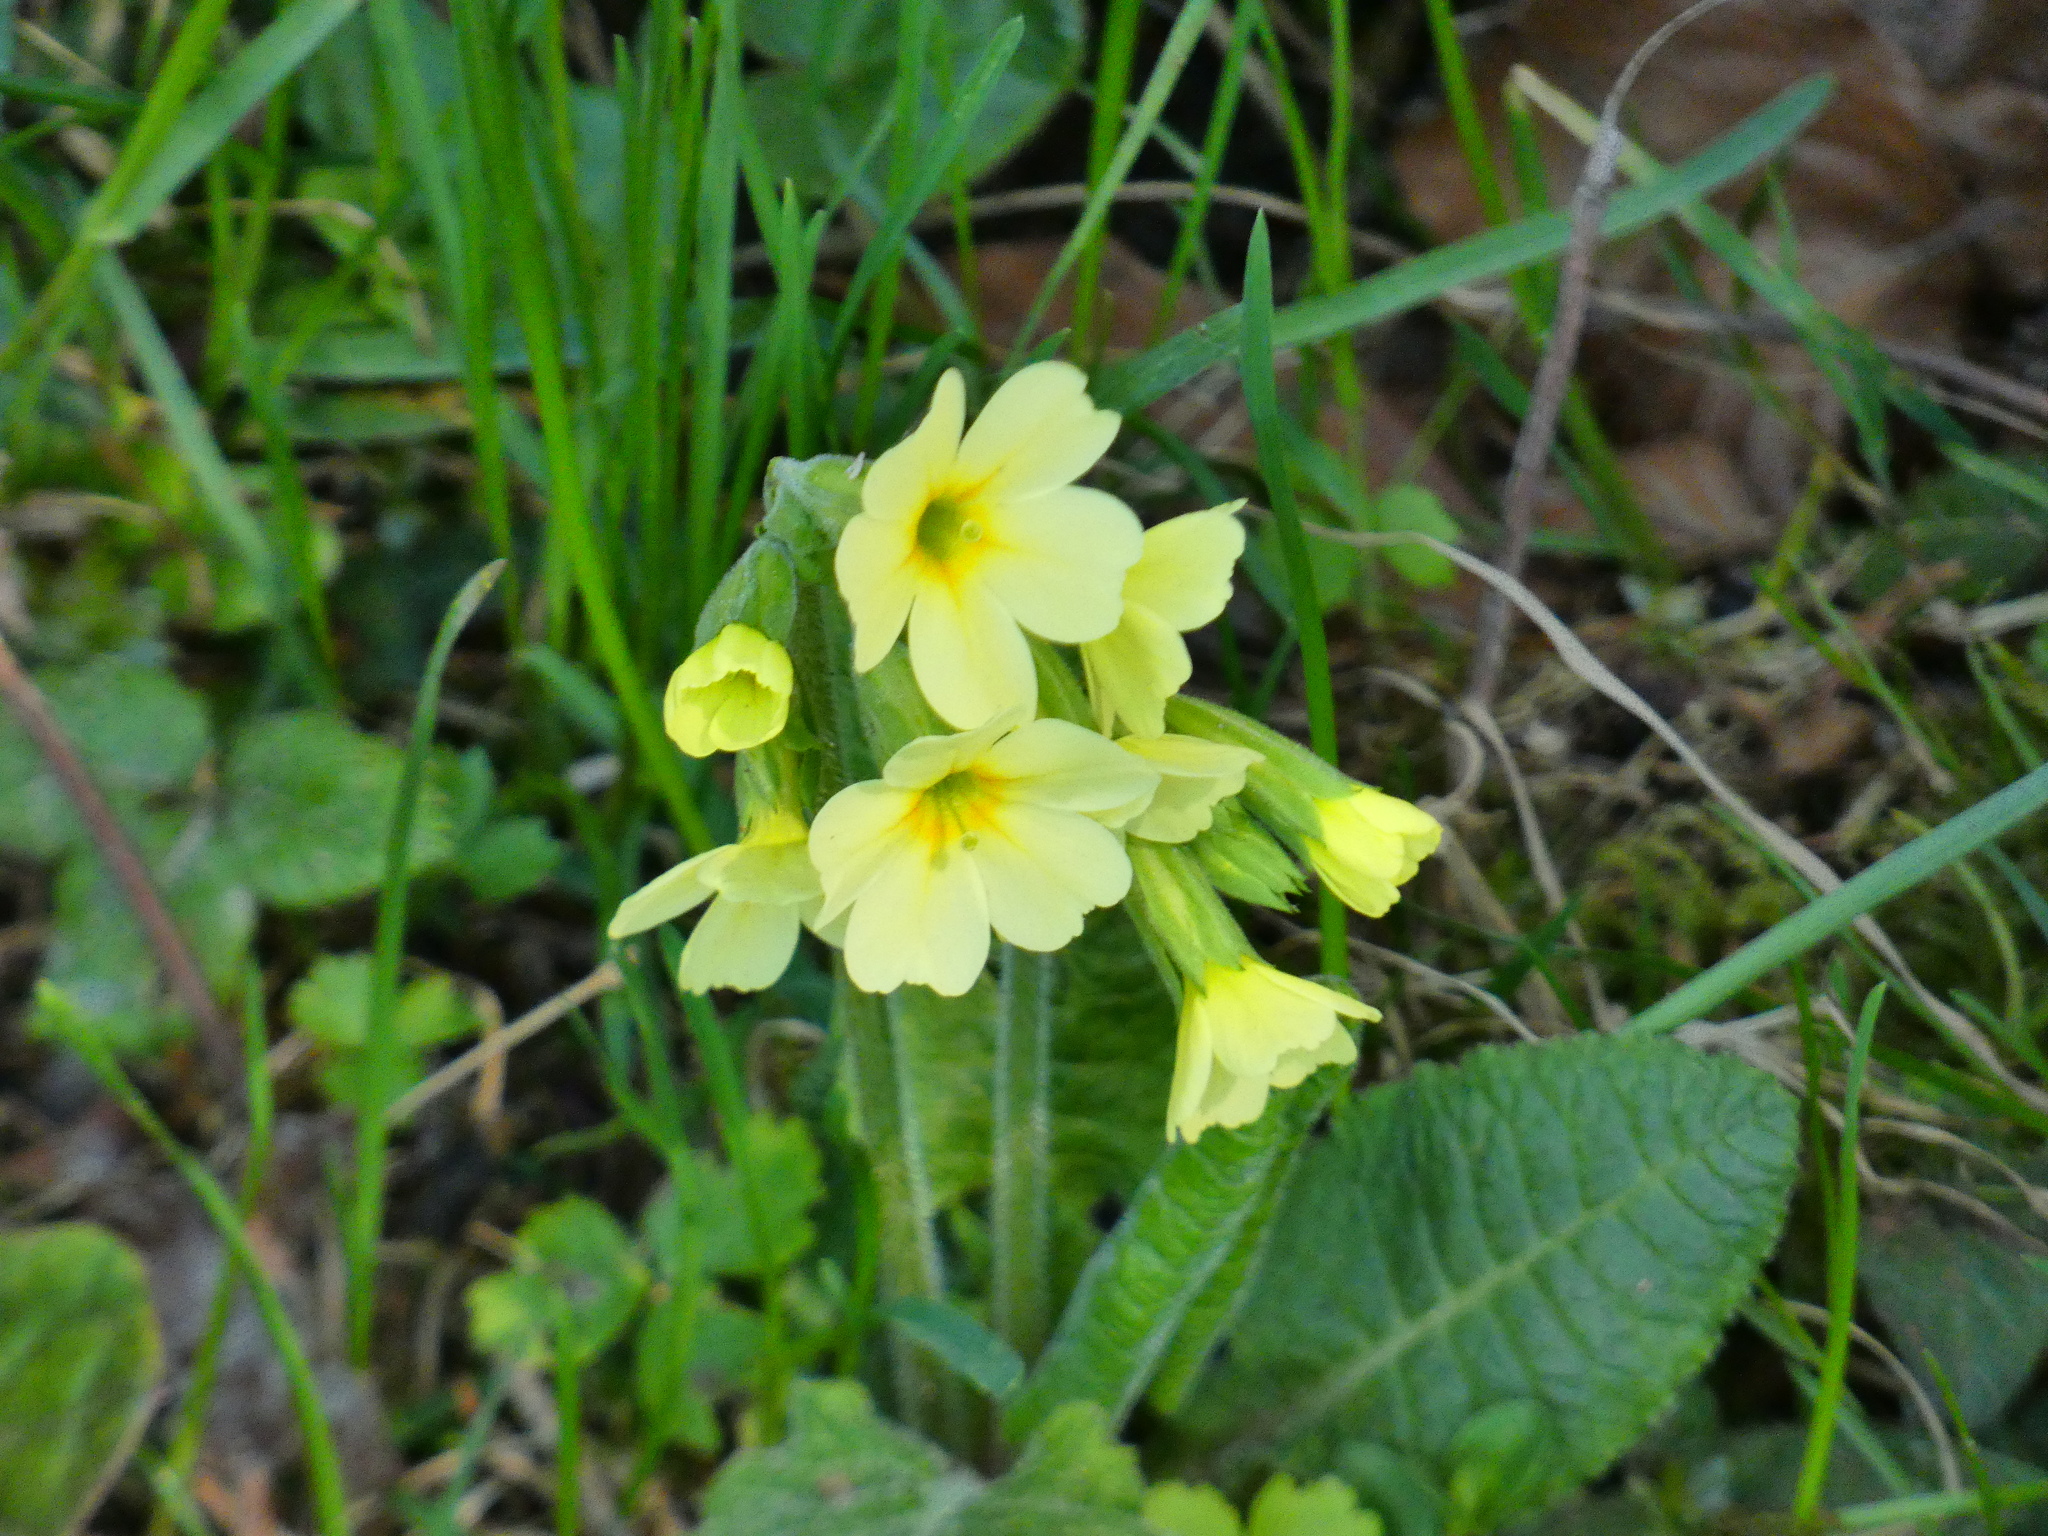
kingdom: Plantae
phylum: Tracheophyta
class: Magnoliopsida
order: Ericales
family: Primulaceae
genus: Primula
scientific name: Primula elatior
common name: Oxlip
